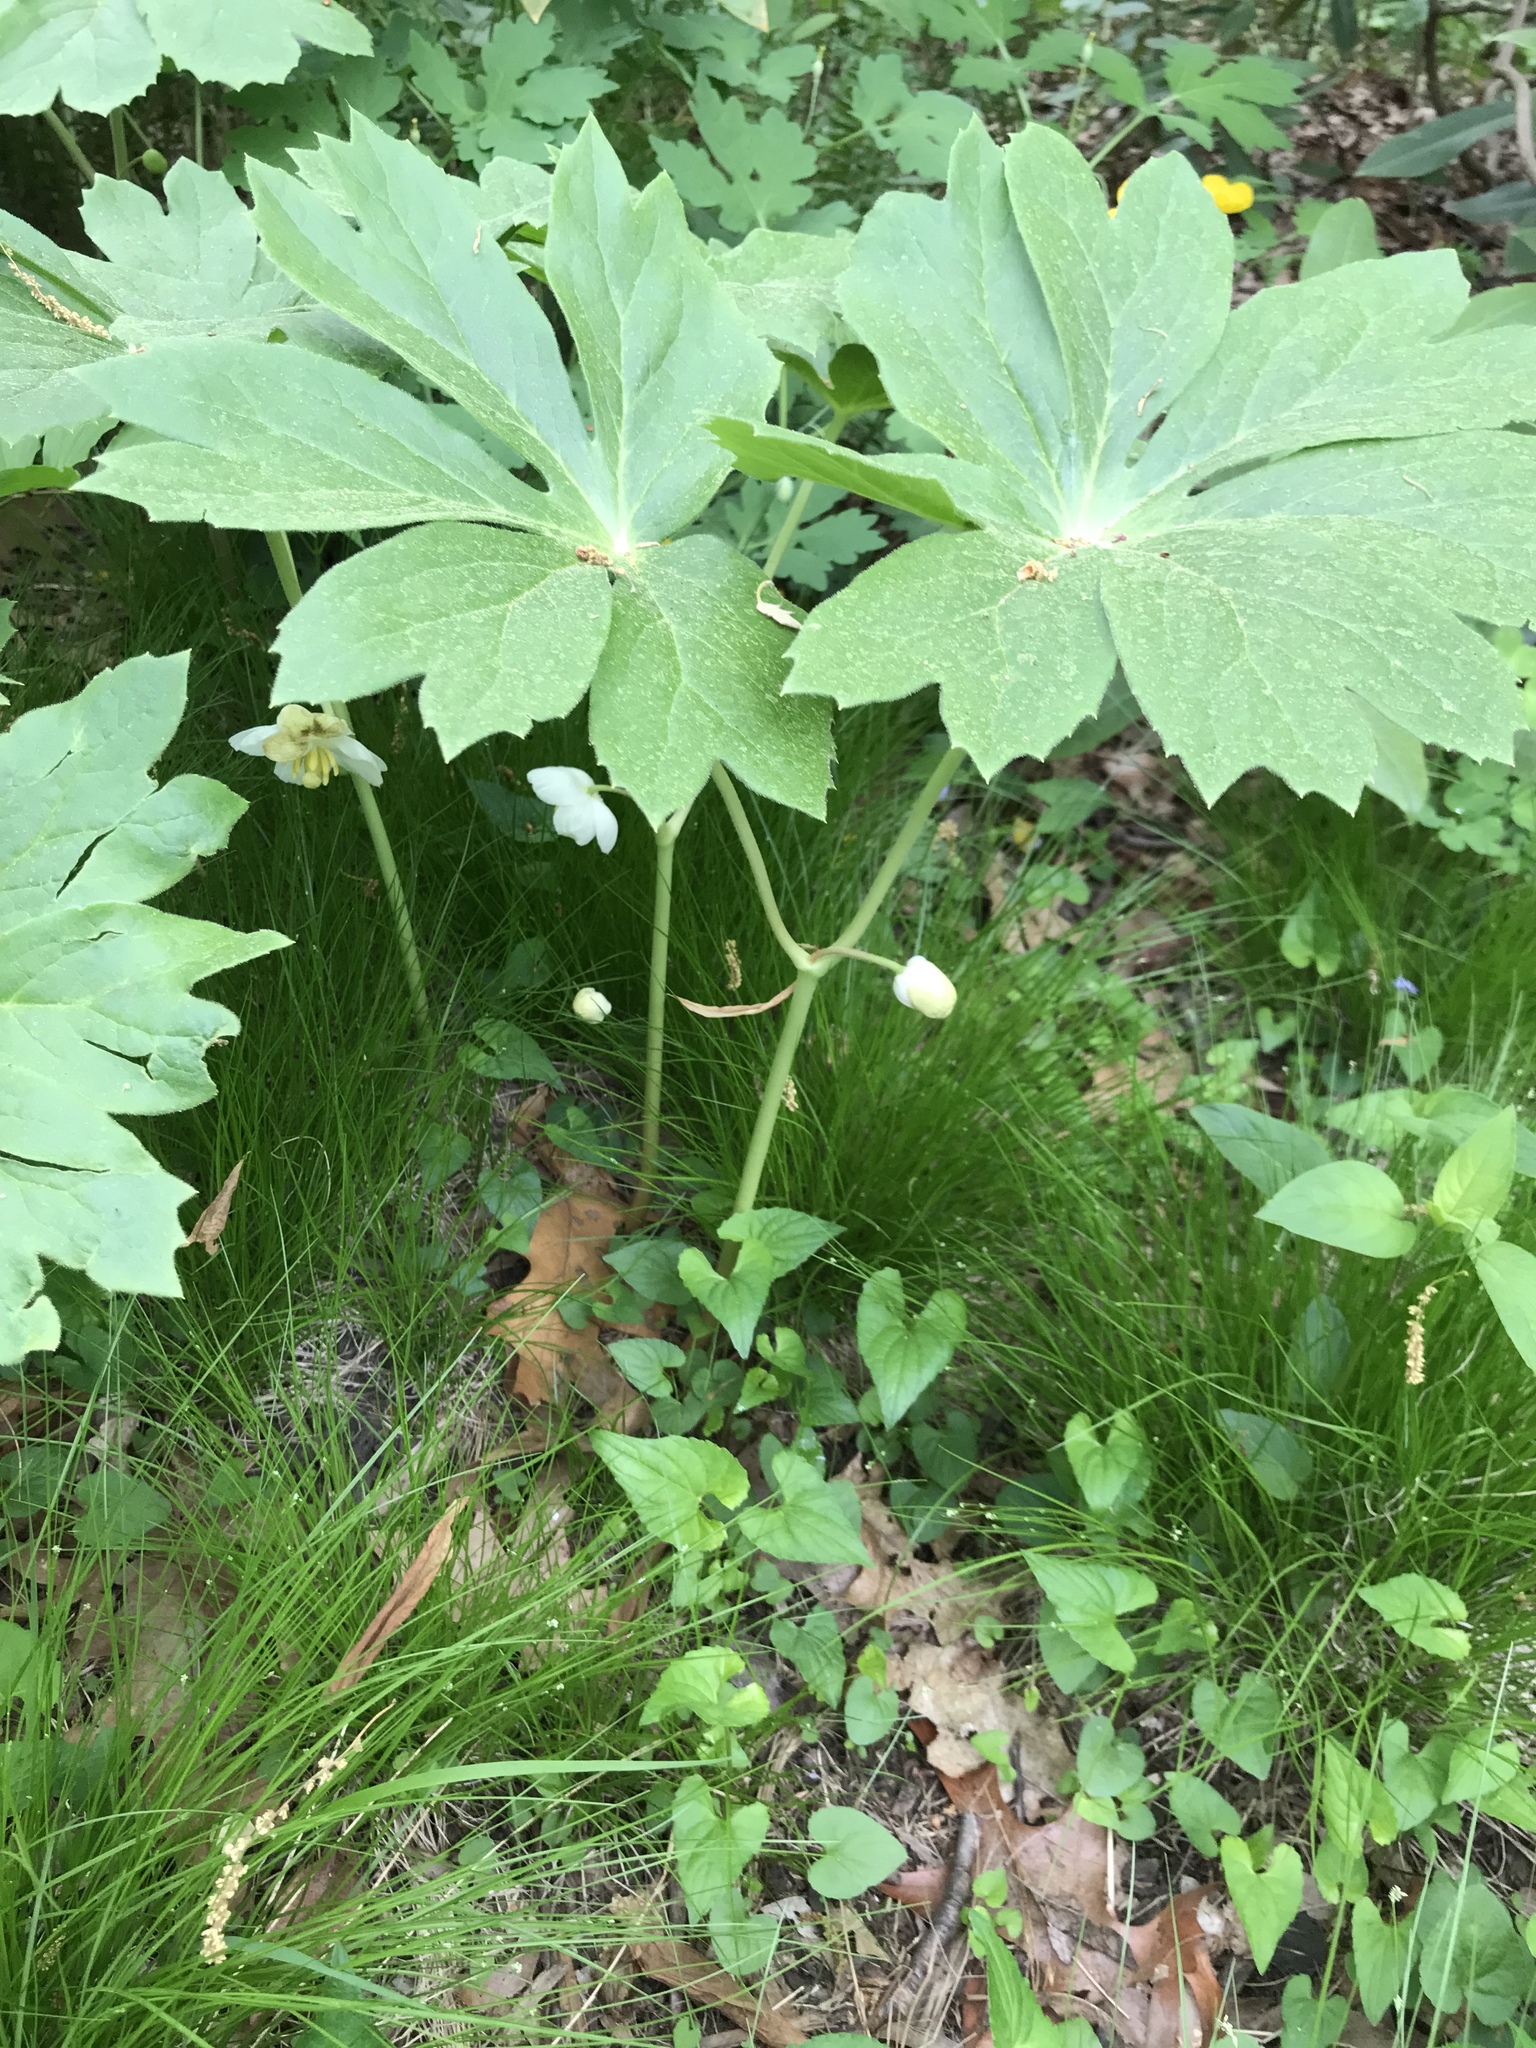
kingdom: Plantae
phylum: Tracheophyta
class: Magnoliopsida
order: Ranunculales
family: Berberidaceae
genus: Podophyllum
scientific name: Podophyllum peltatum
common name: Wild mandrake
